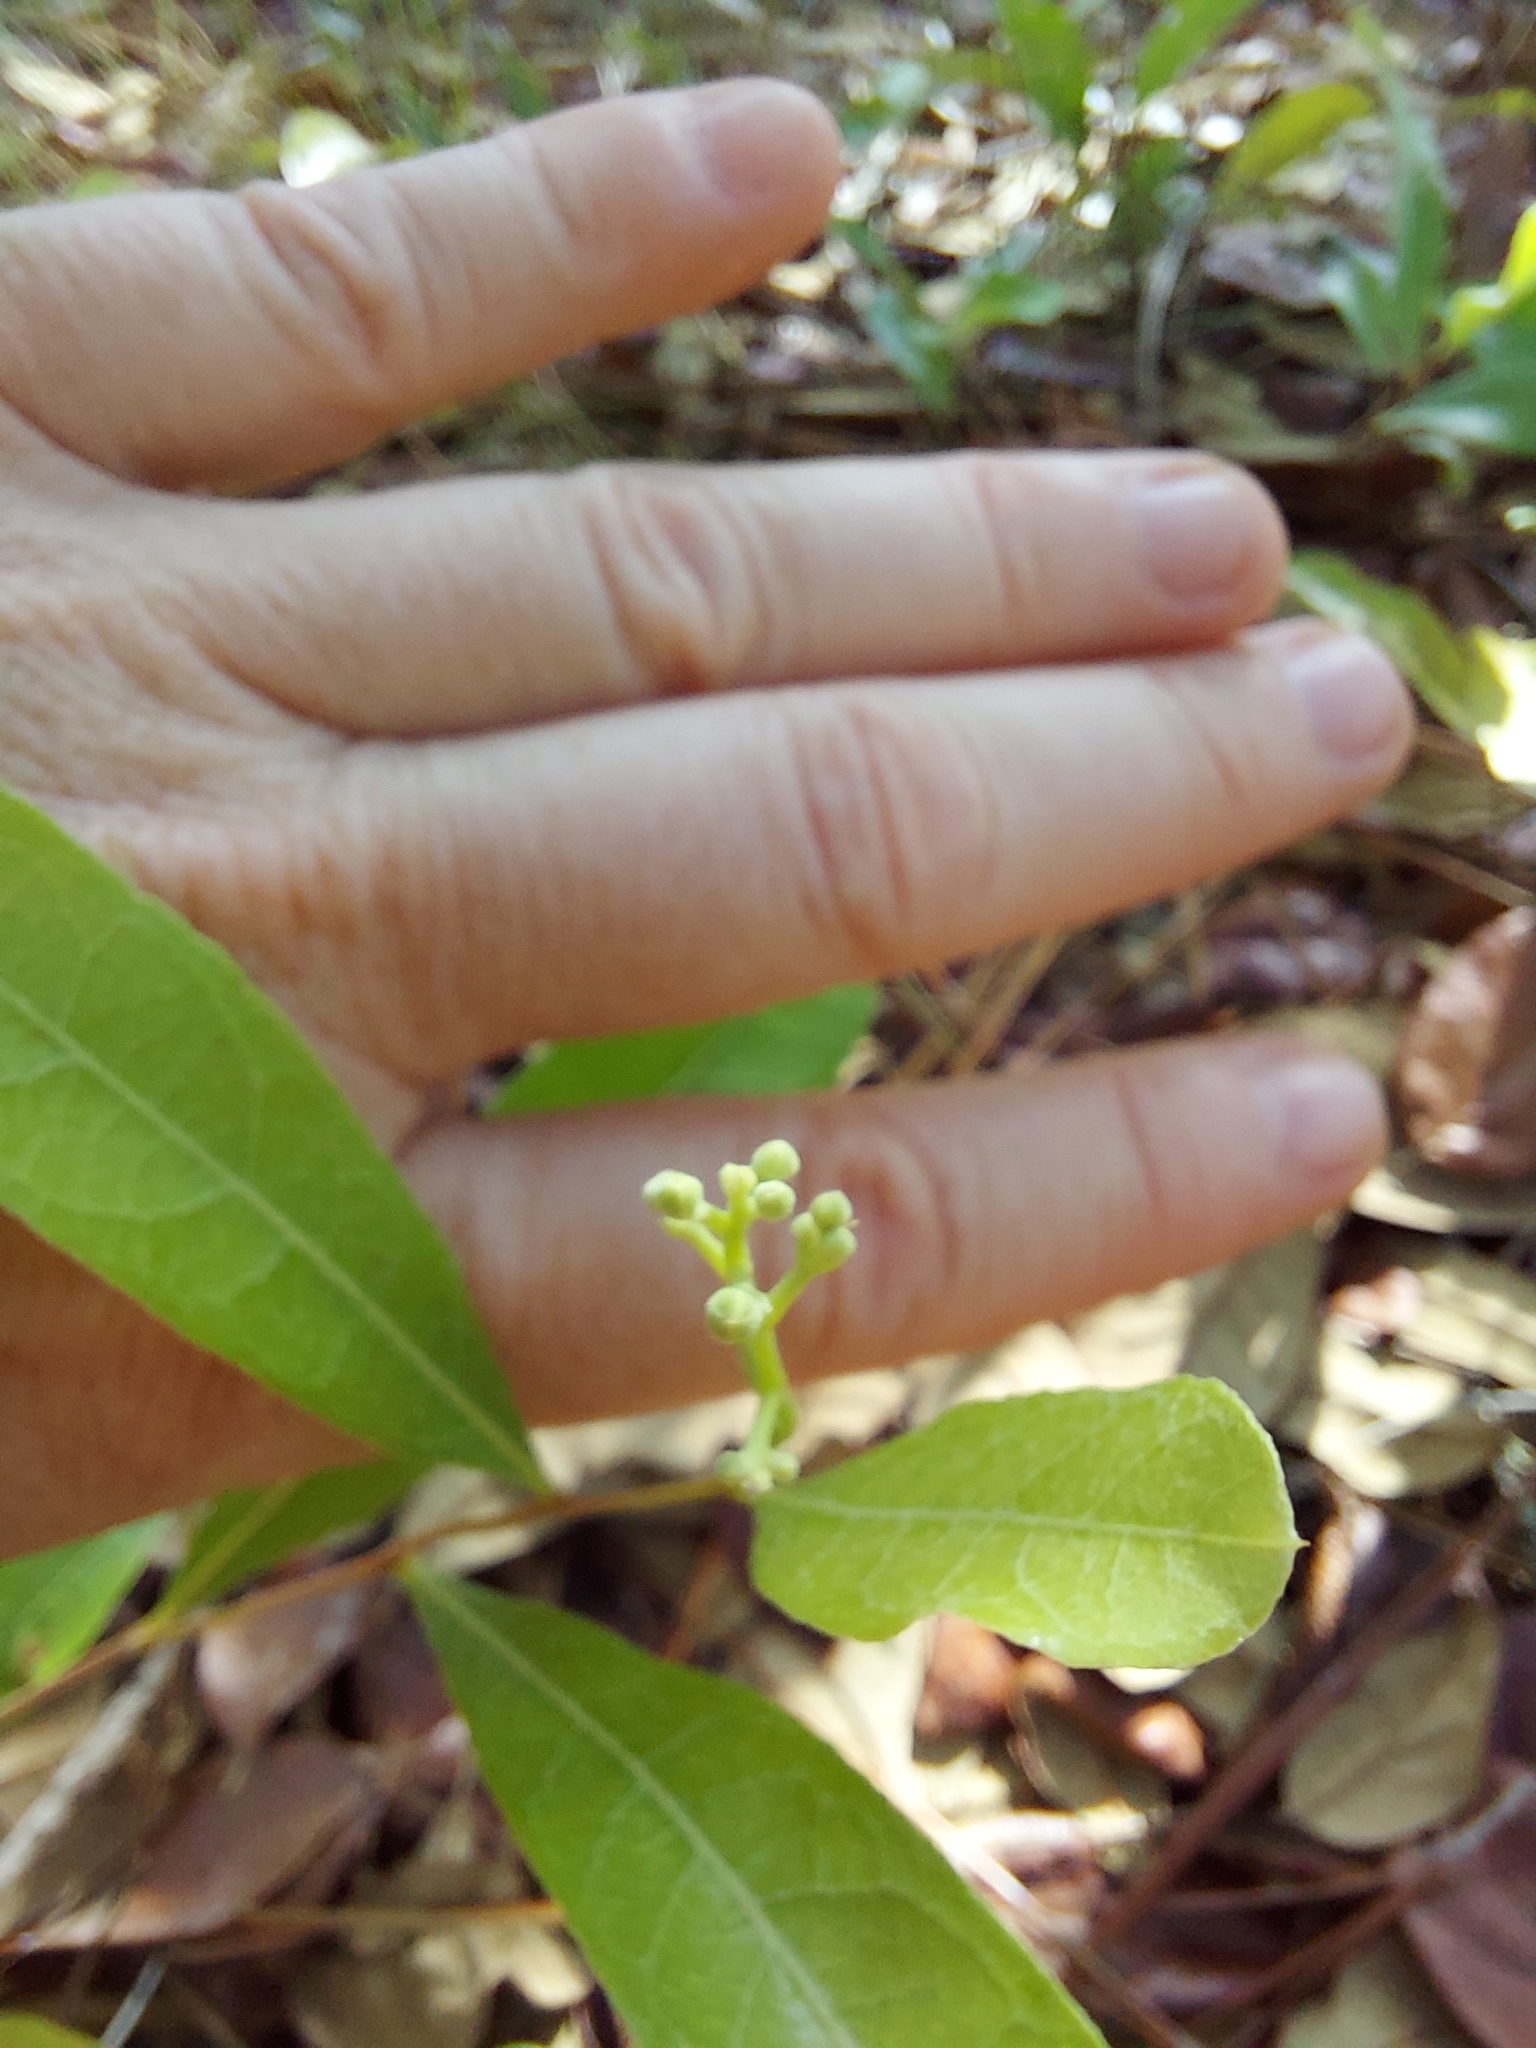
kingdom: Plantae
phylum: Tracheophyta
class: Magnoliopsida
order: Malpighiales
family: Chrysobalanaceae
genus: Geobalanus
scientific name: Geobalanus oblongifolius
